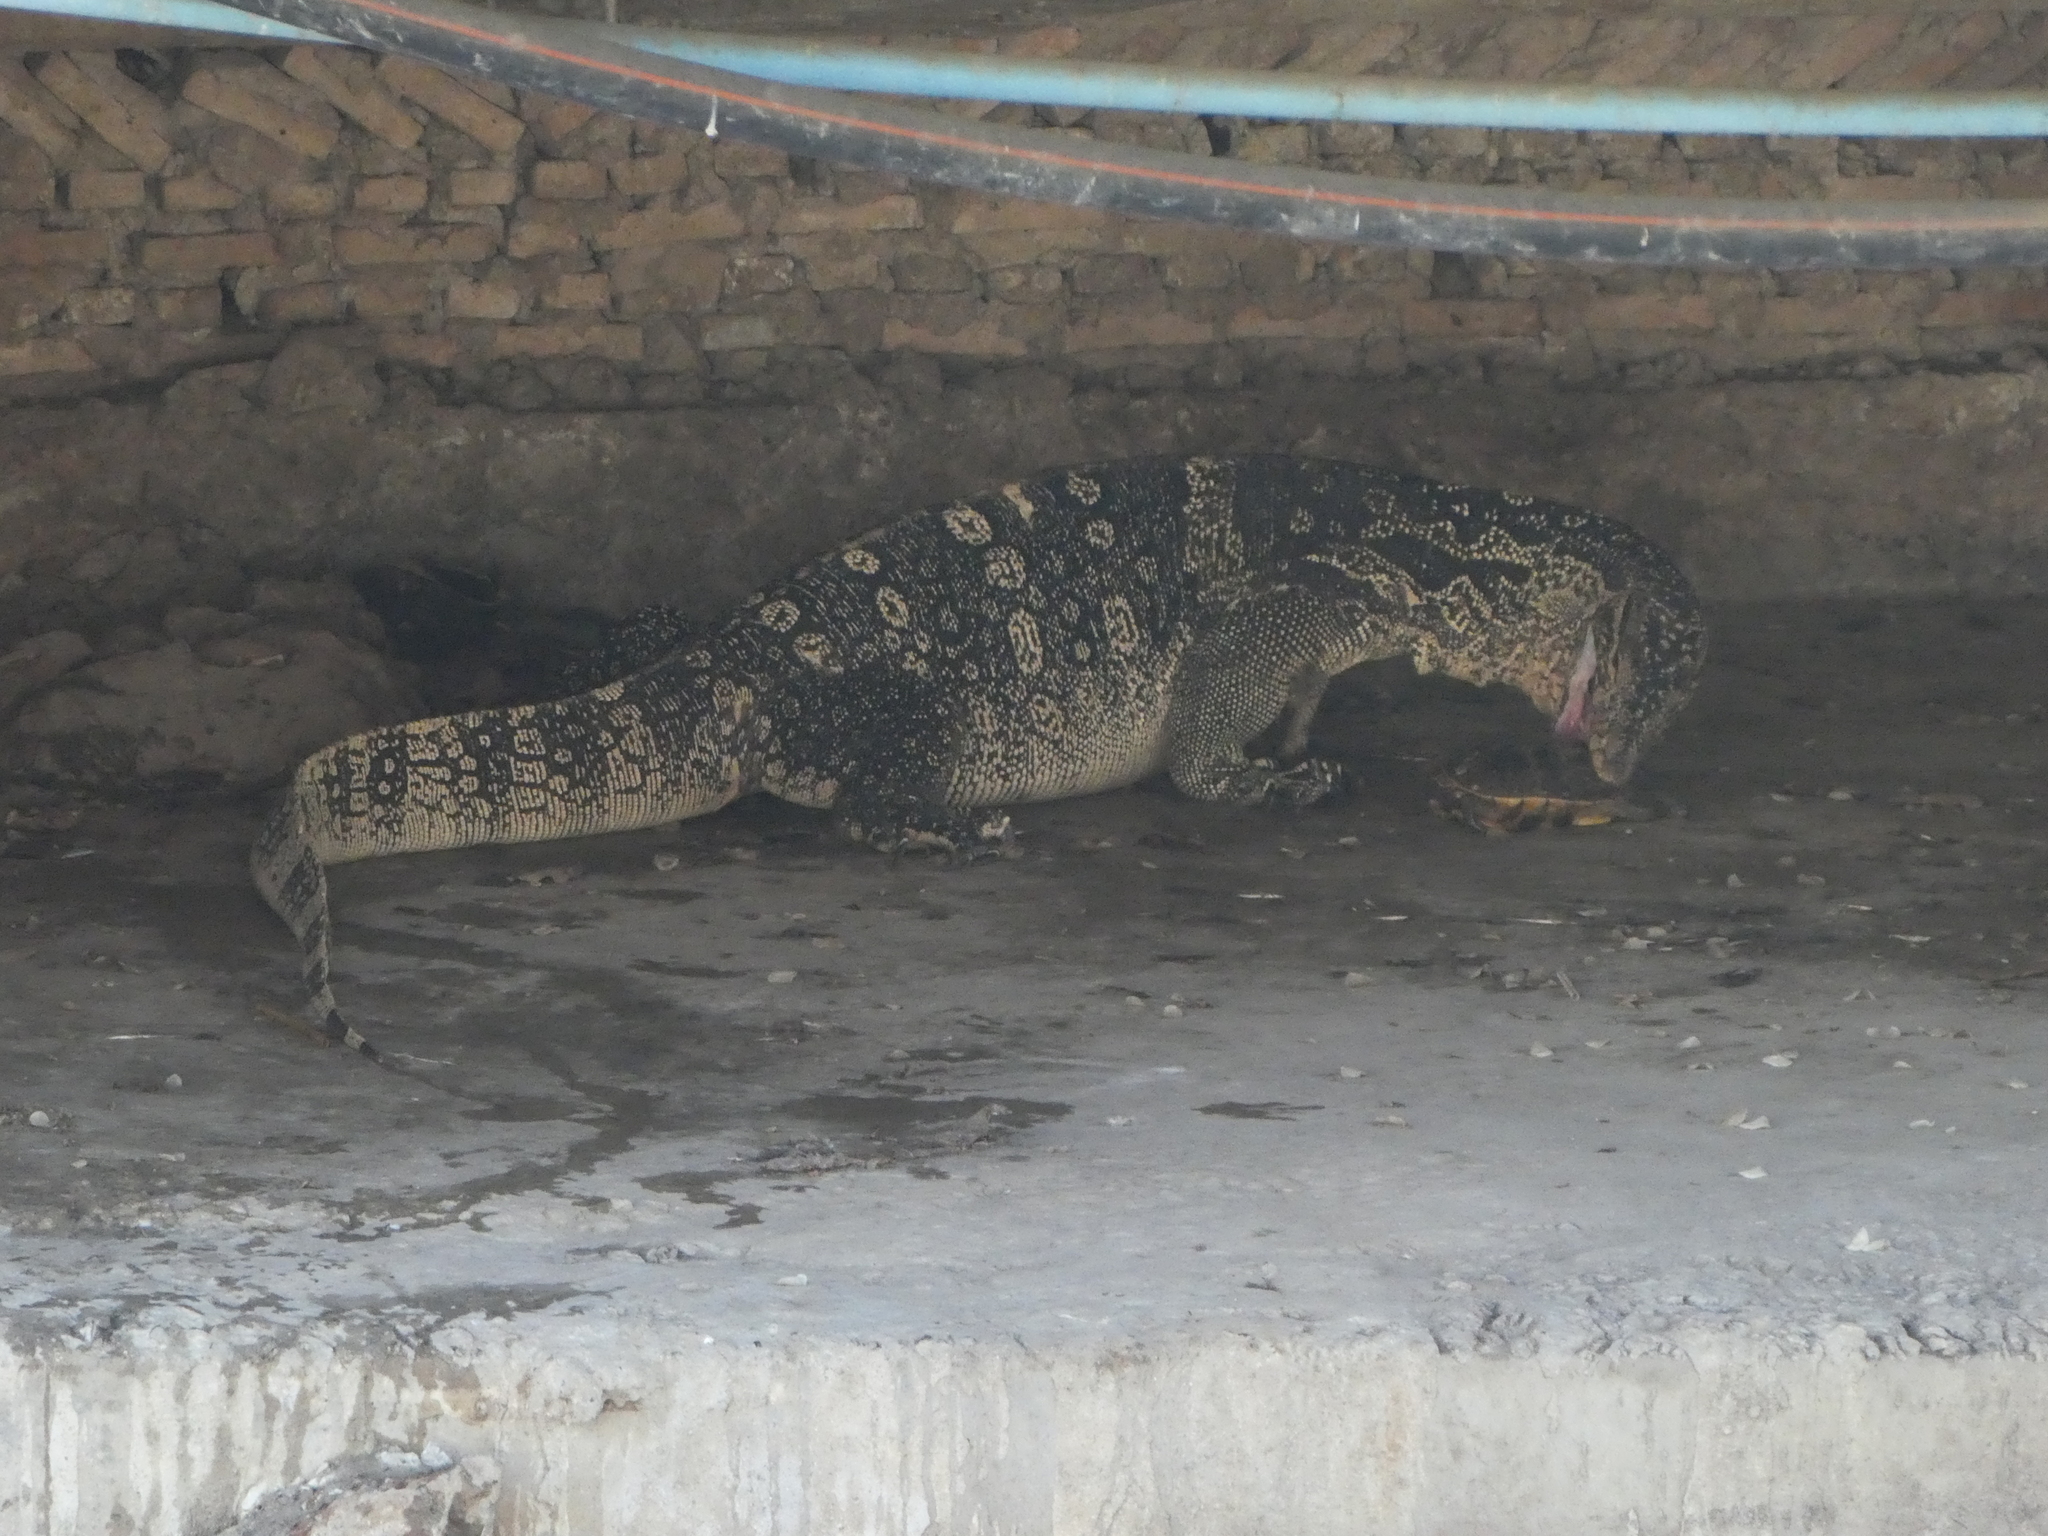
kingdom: Animalia
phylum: Chordata
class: Squamata
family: Varanidae
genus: Varanus
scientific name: Varanus salvator
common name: Common water monitor
